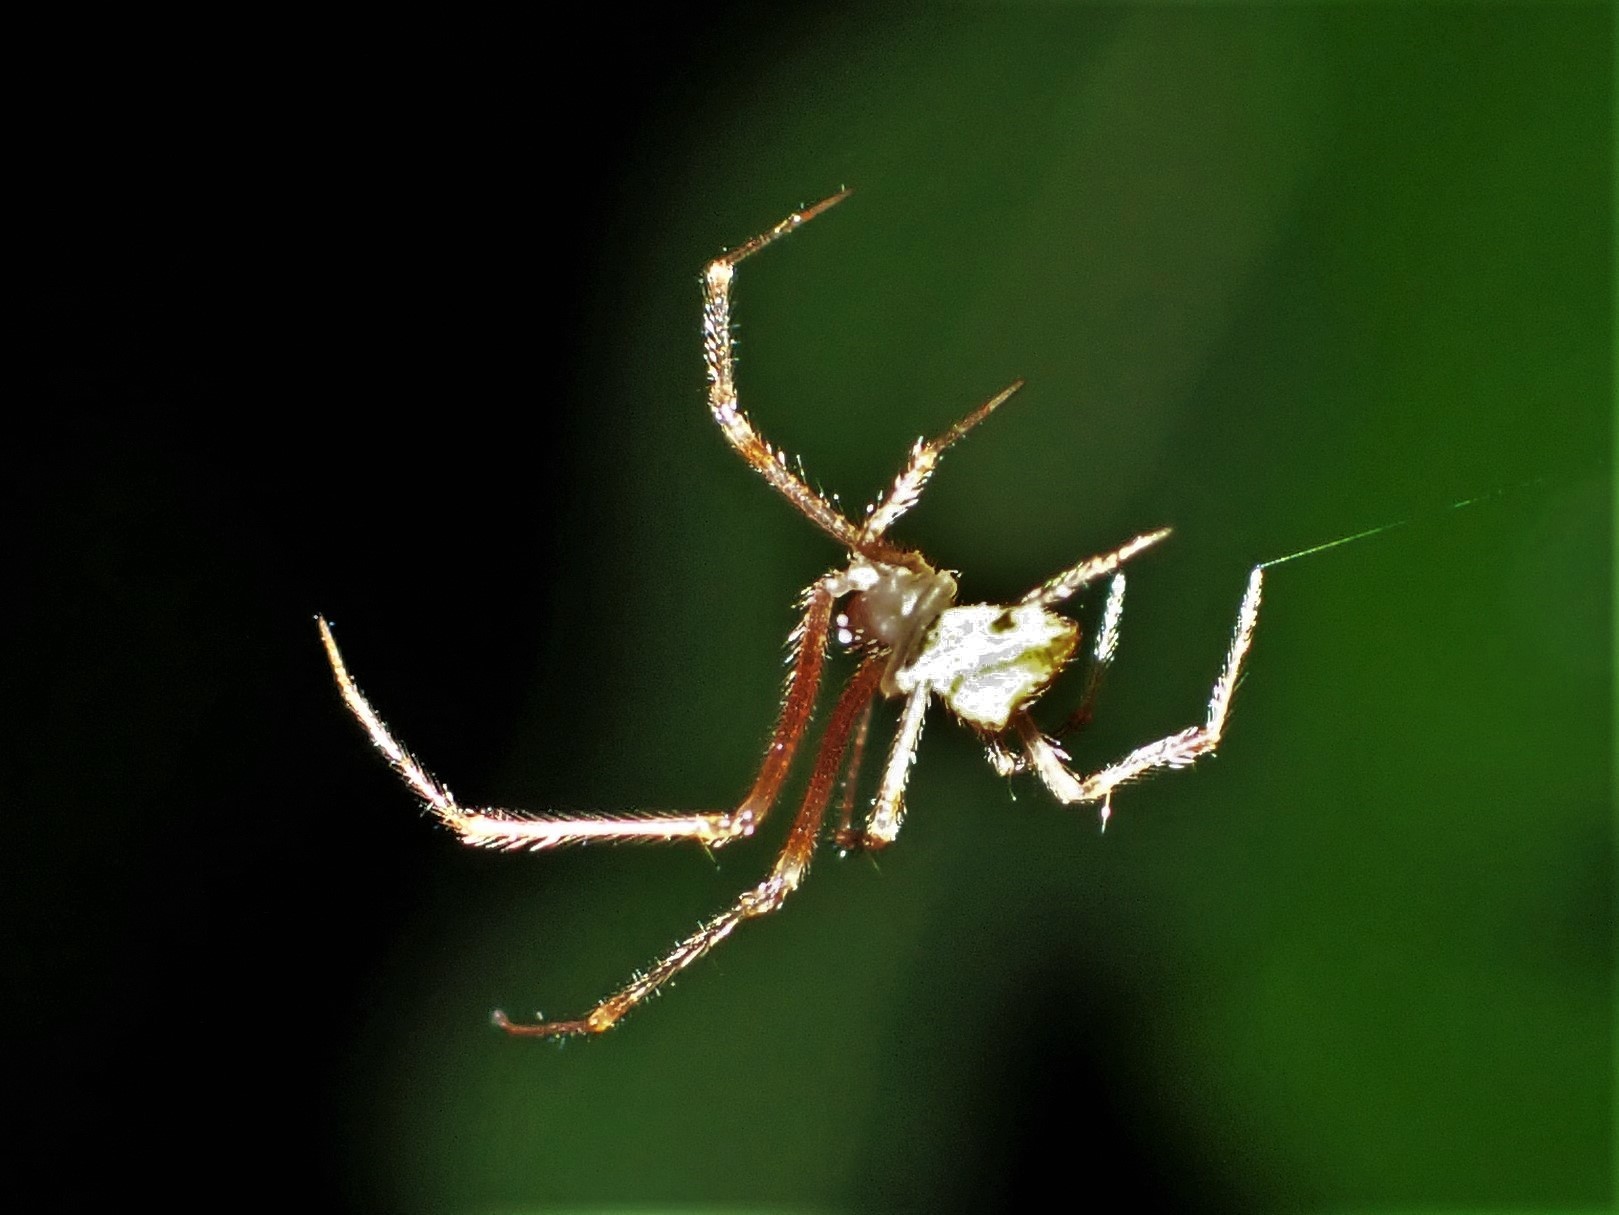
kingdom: Animalia
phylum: Arthropoda
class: Arachnida
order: Araneae
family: Araneidae
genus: Eriophora
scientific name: Eriophora pustulosa
